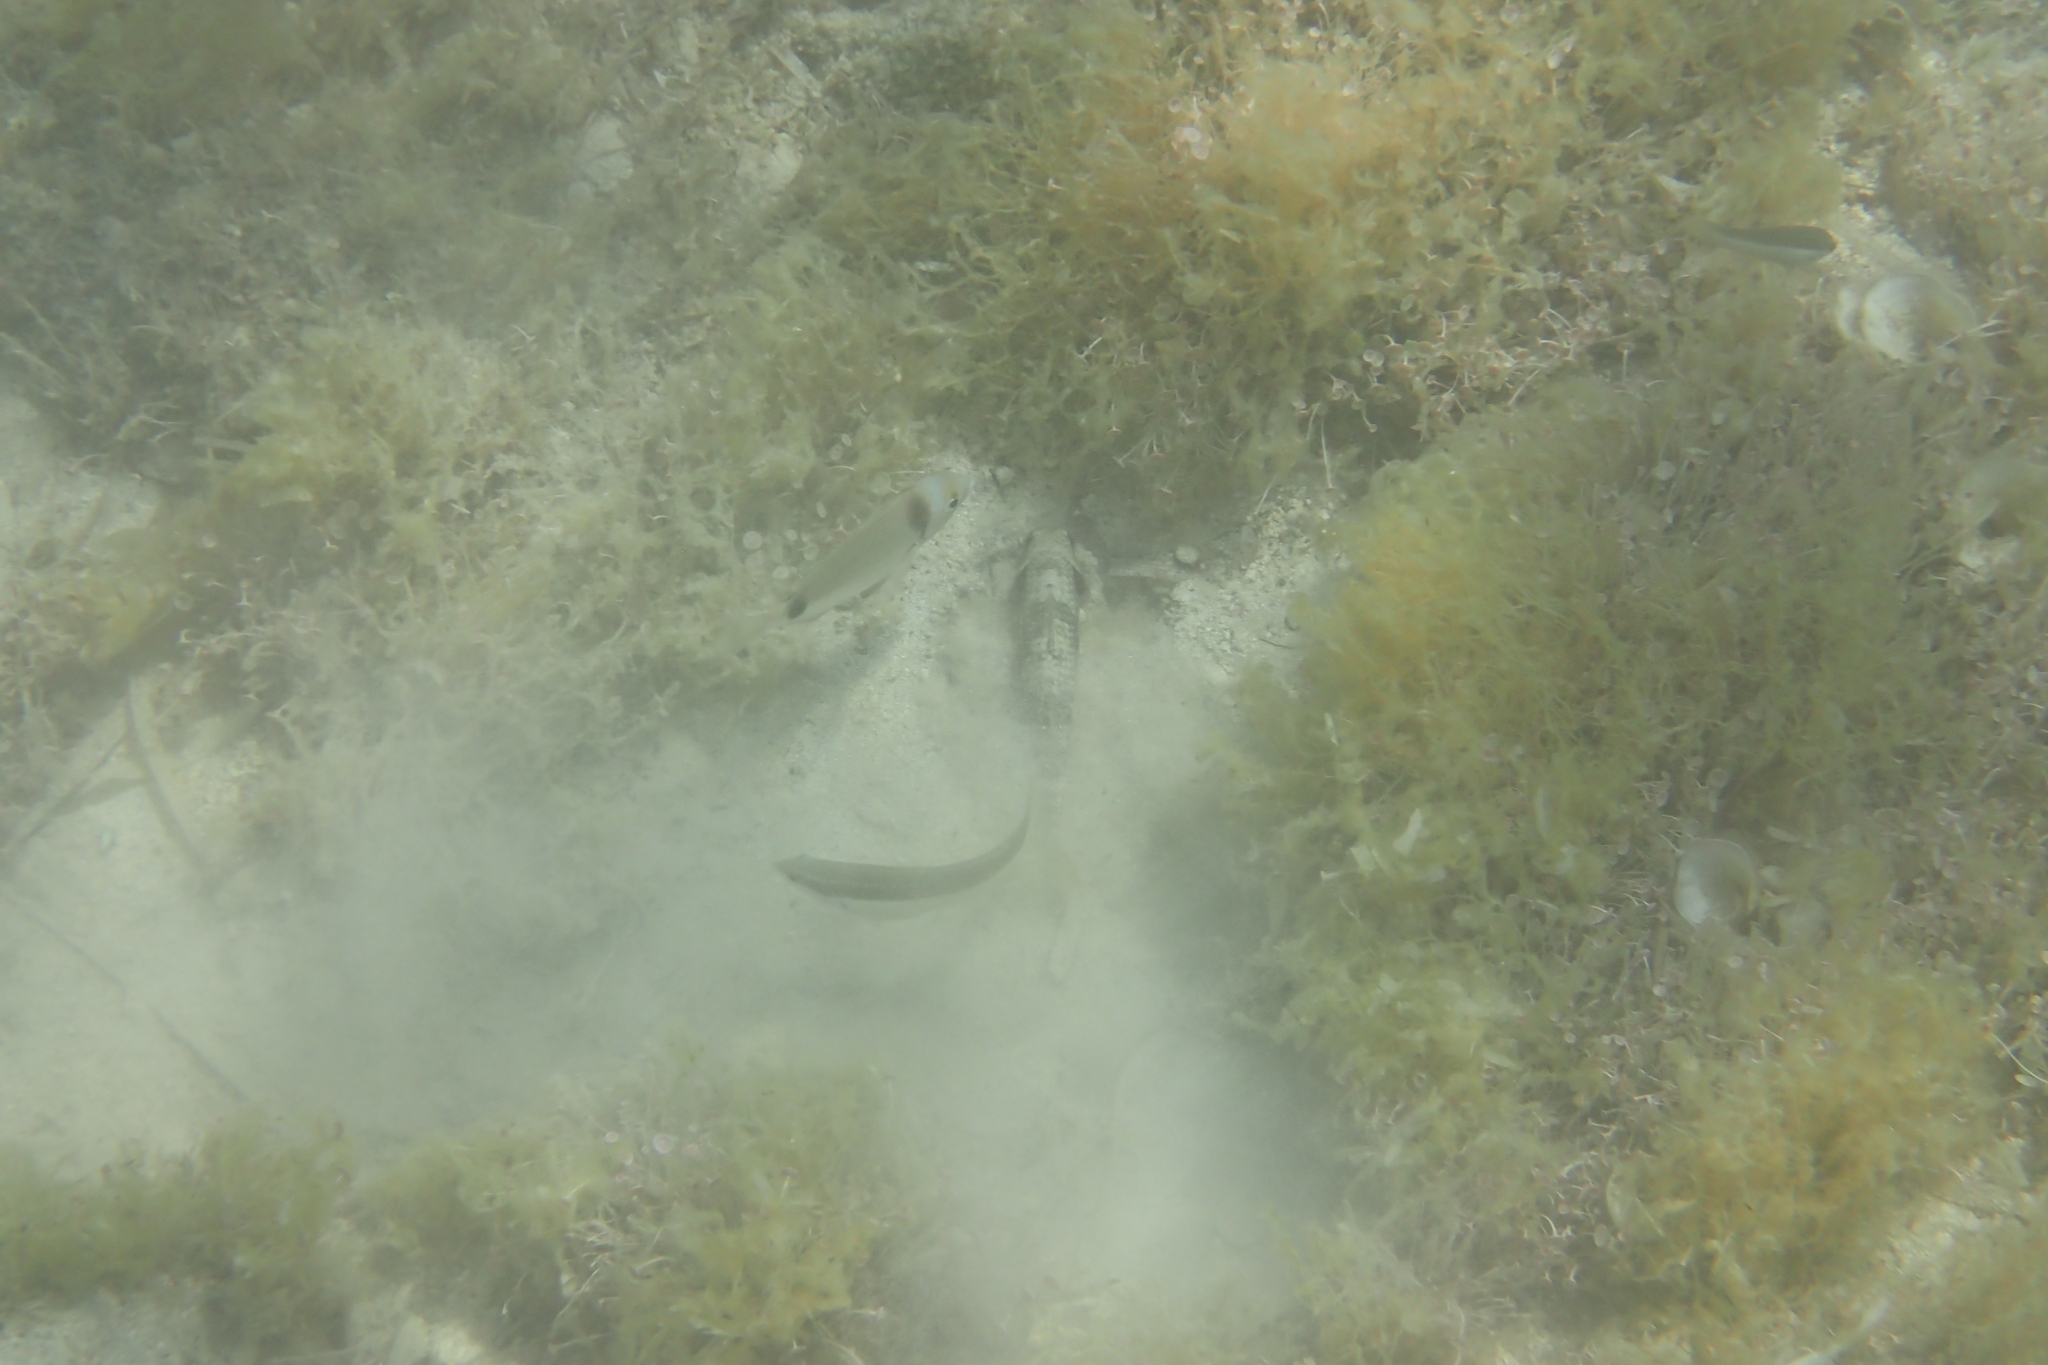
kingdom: Animalia
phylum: Chordata
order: Perciformes
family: Sparidae
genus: Diplodus
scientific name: Diplodus vulgaris
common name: Common two-banded seabream
